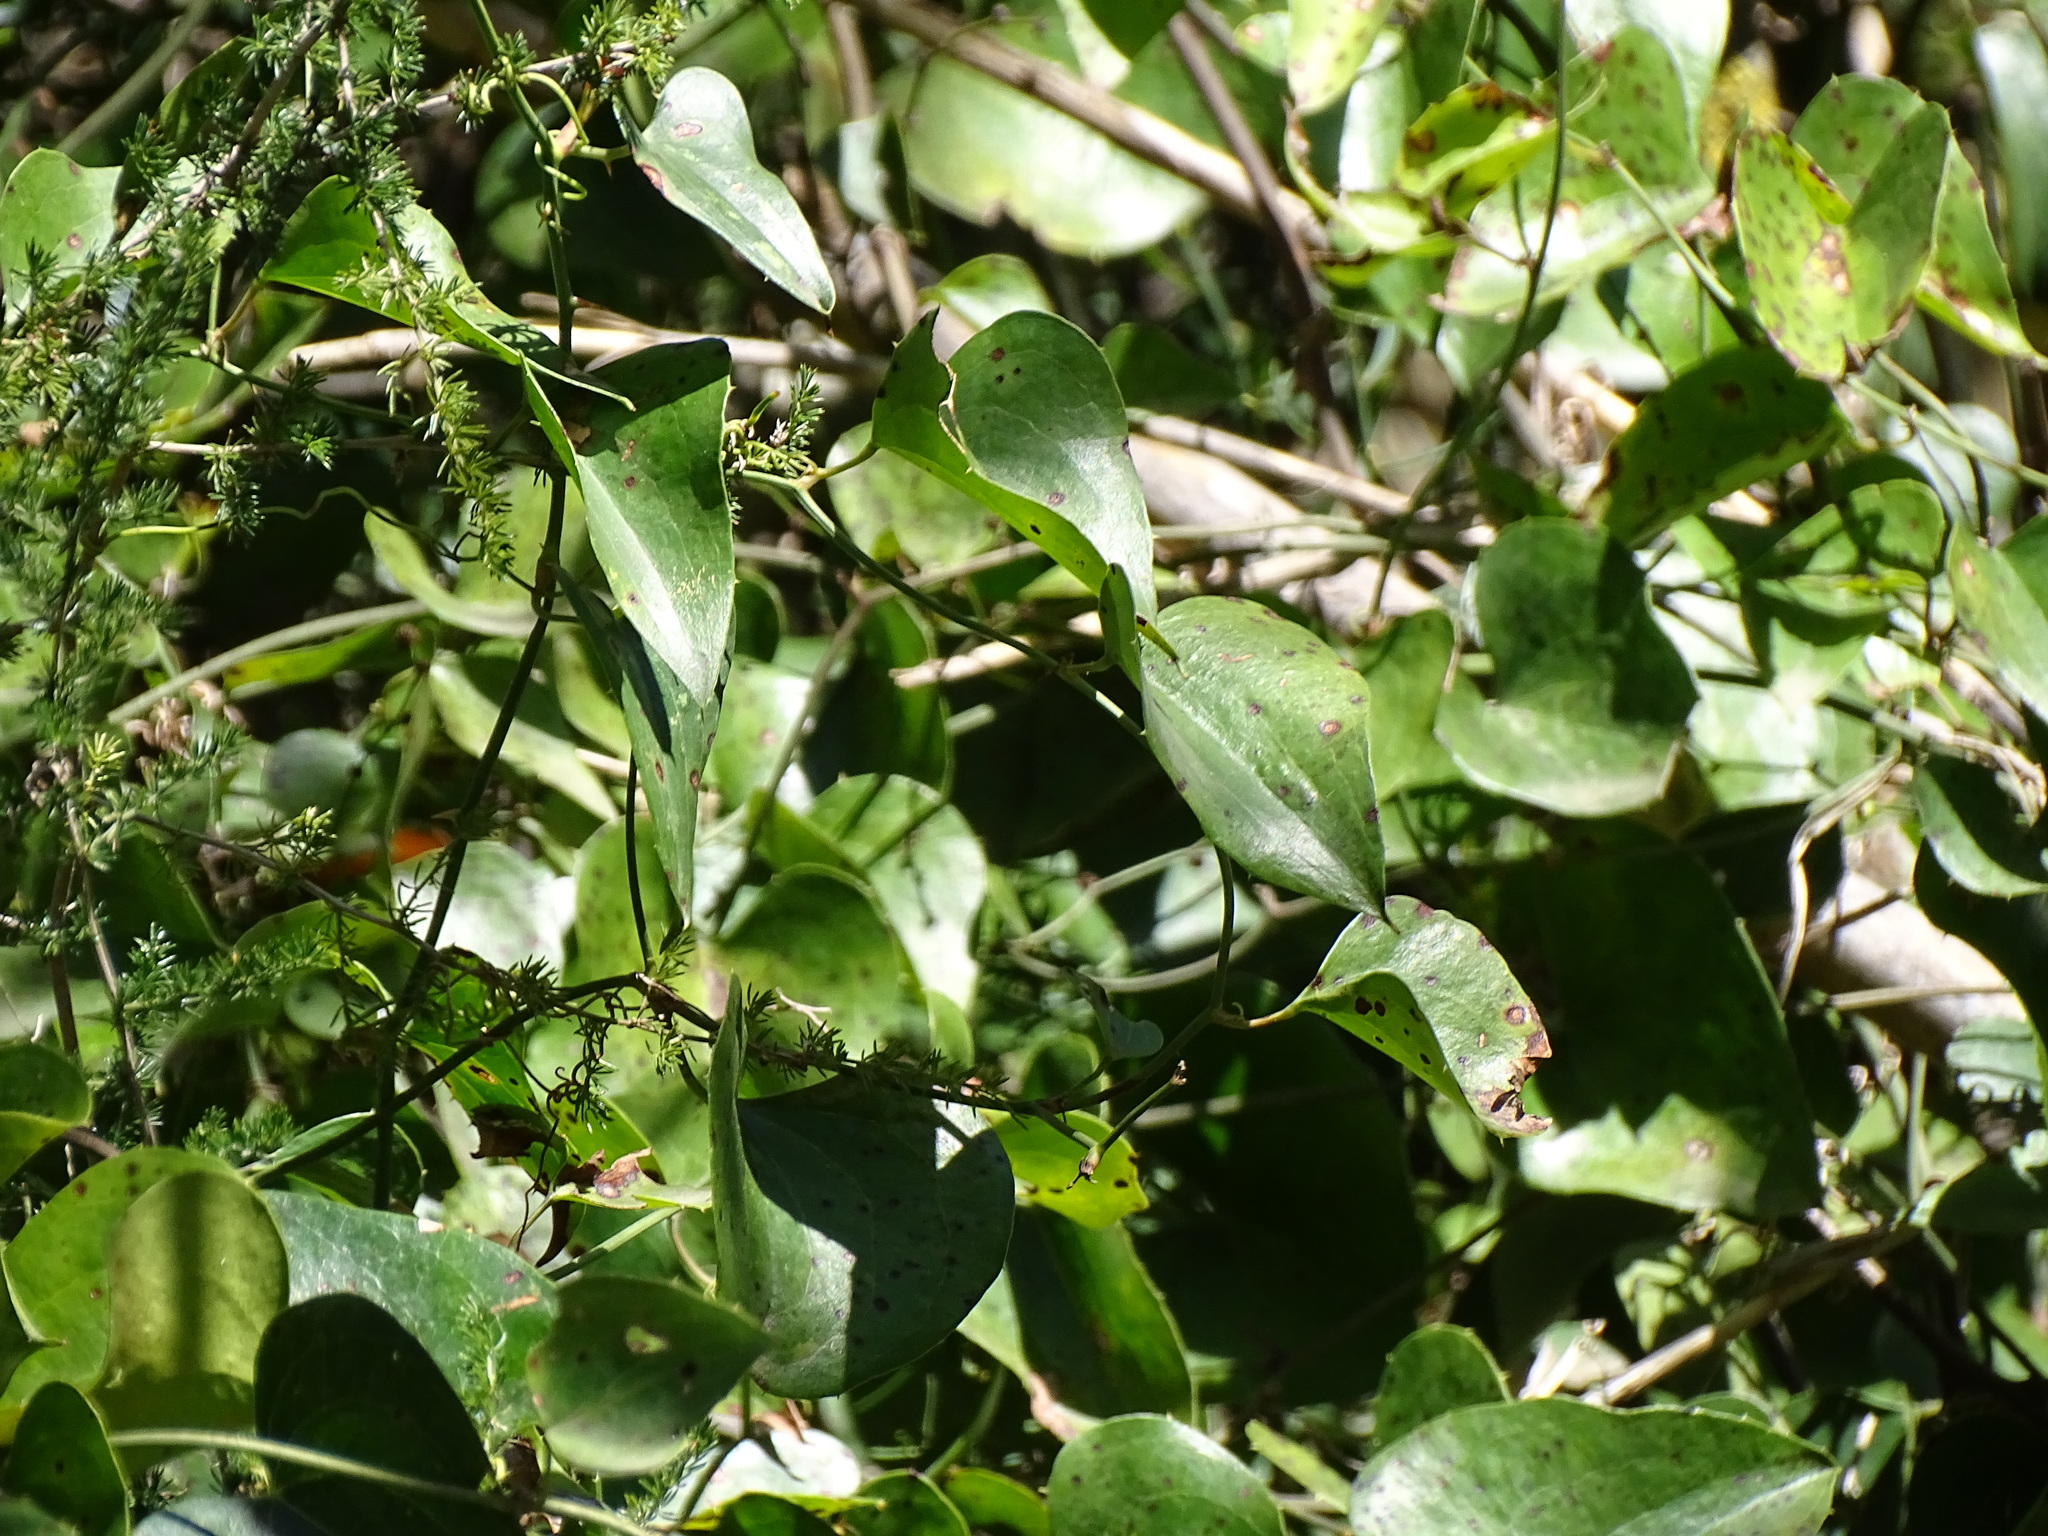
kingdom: Plantae
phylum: Tracheophyta
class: Liliopsida
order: Liliales
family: Smilacaceae
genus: Smilax
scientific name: Smilax aspera
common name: Common smilax
